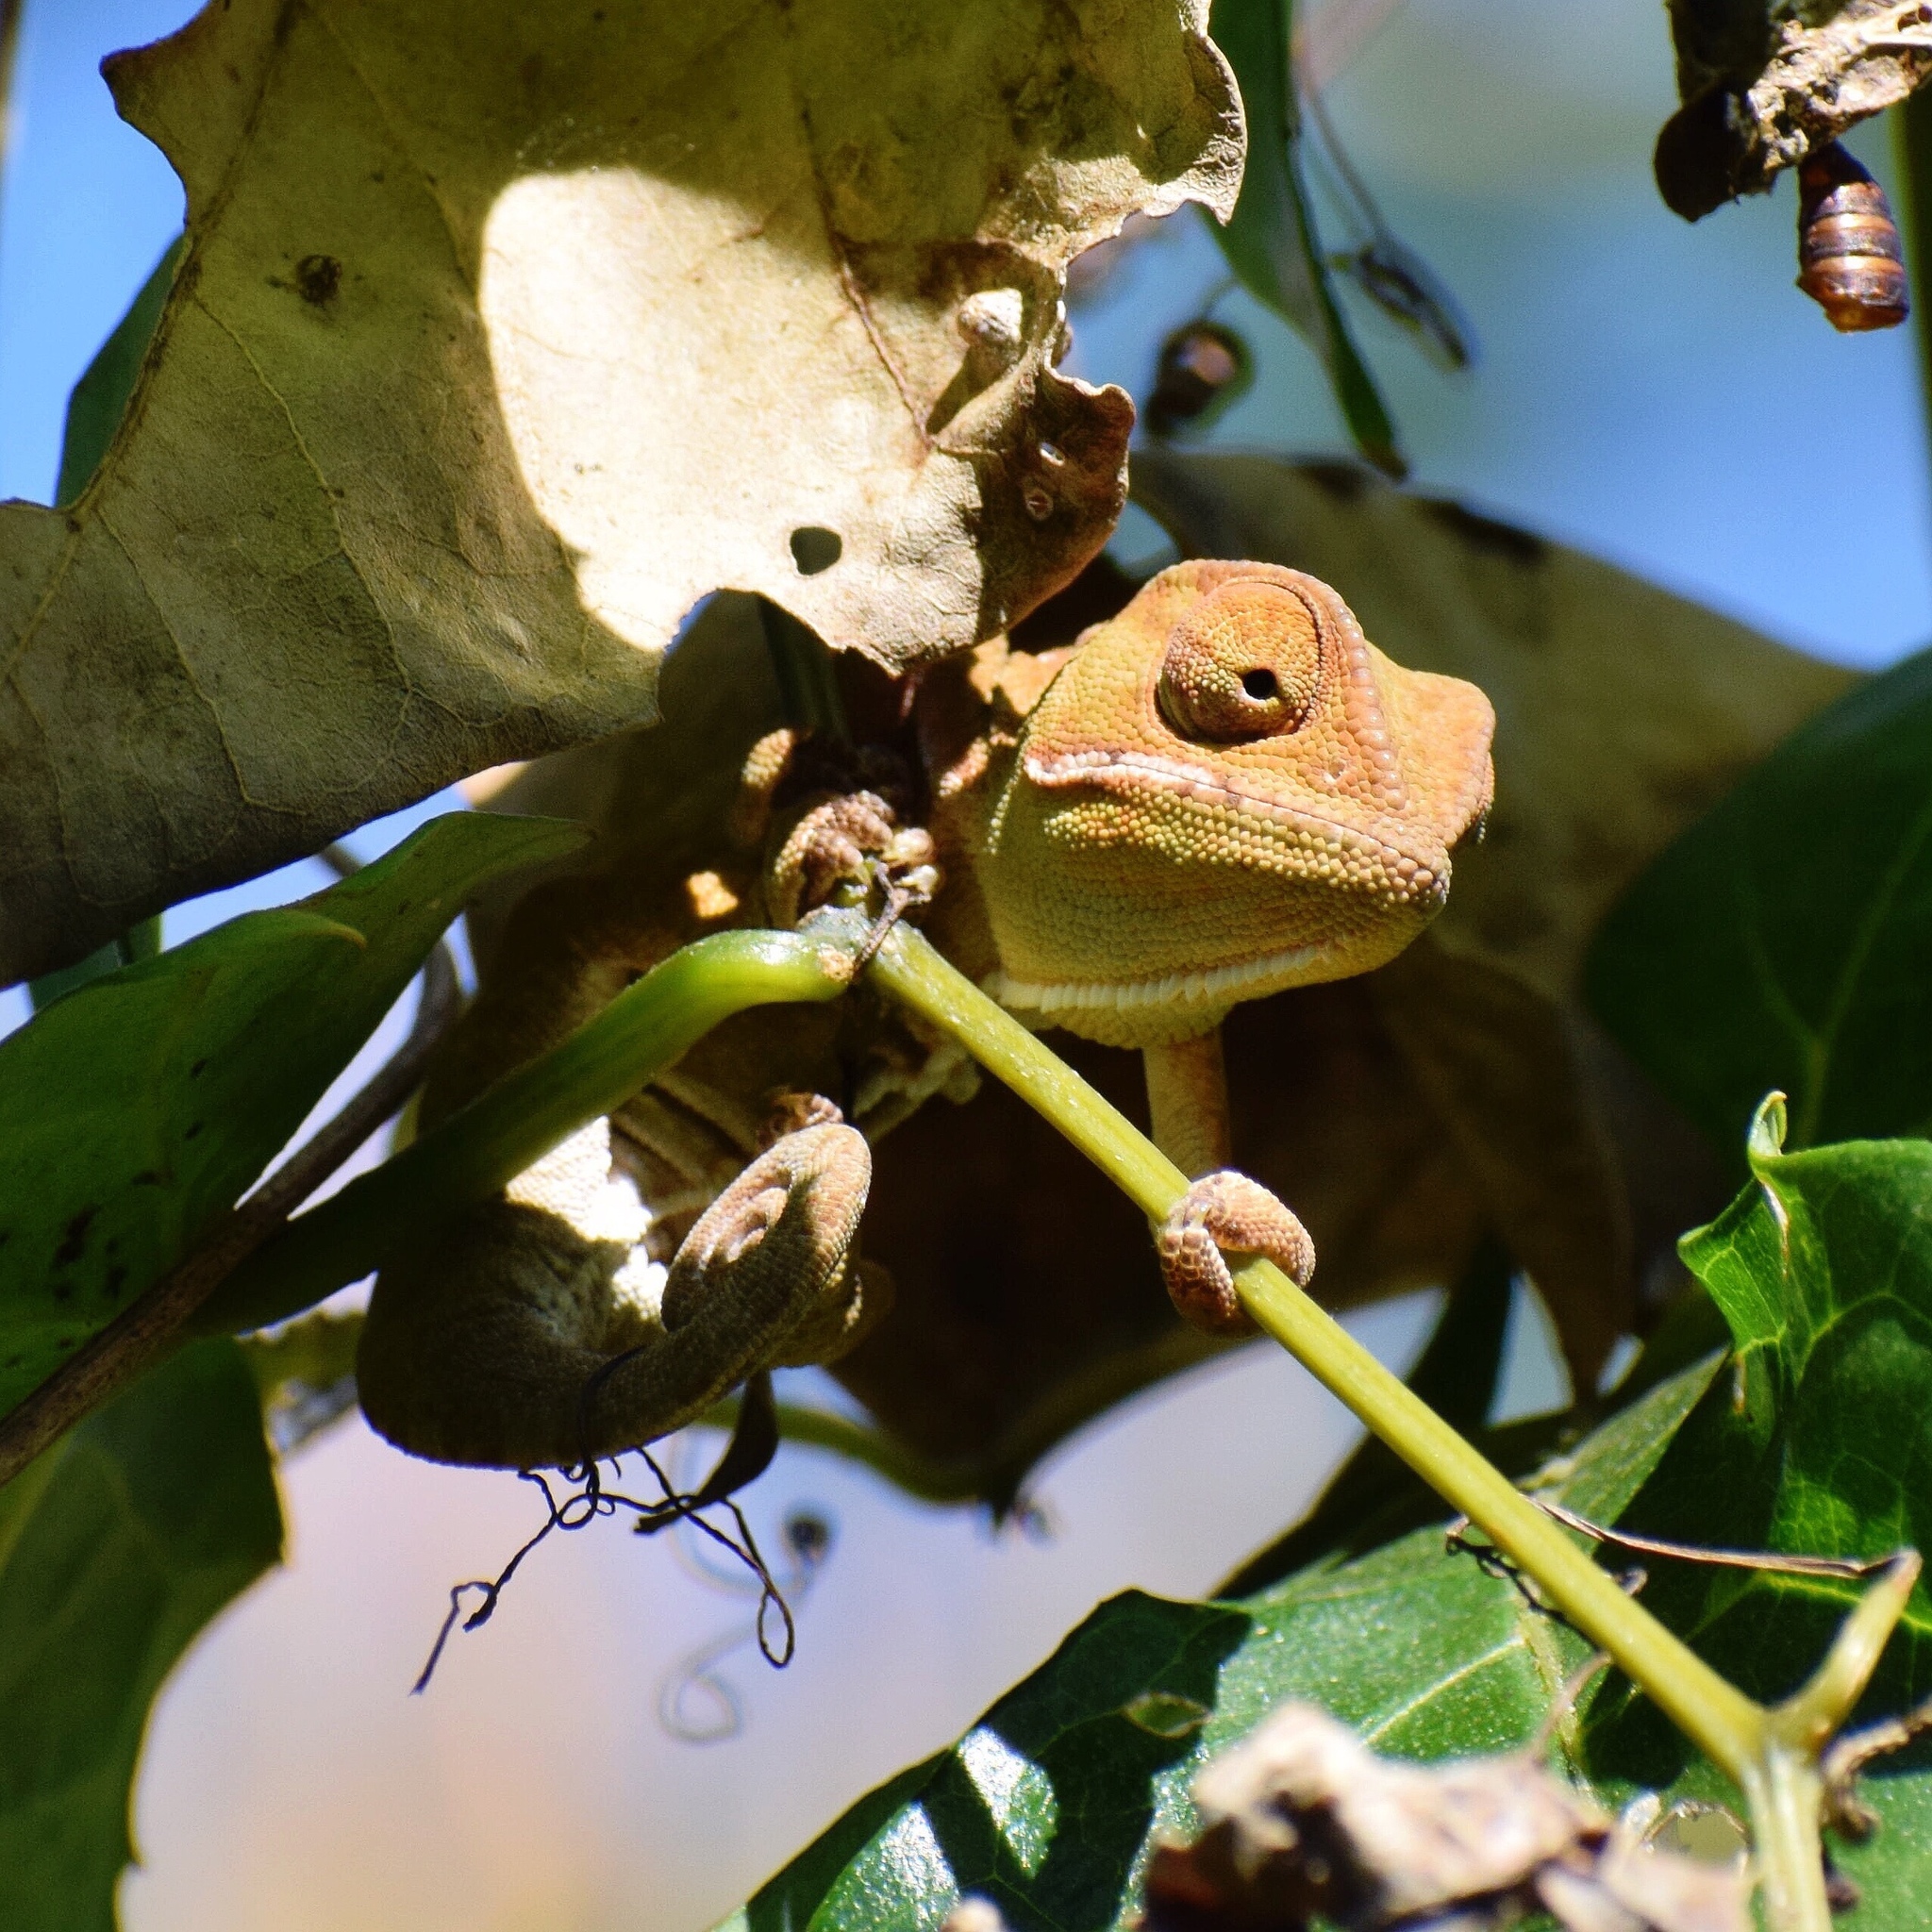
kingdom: Animalia
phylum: Chordata
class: Squamata
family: Chamaeleonidae
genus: Chamaeleo
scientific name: Chamaeleo dilepis
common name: Flapneck chameleon
